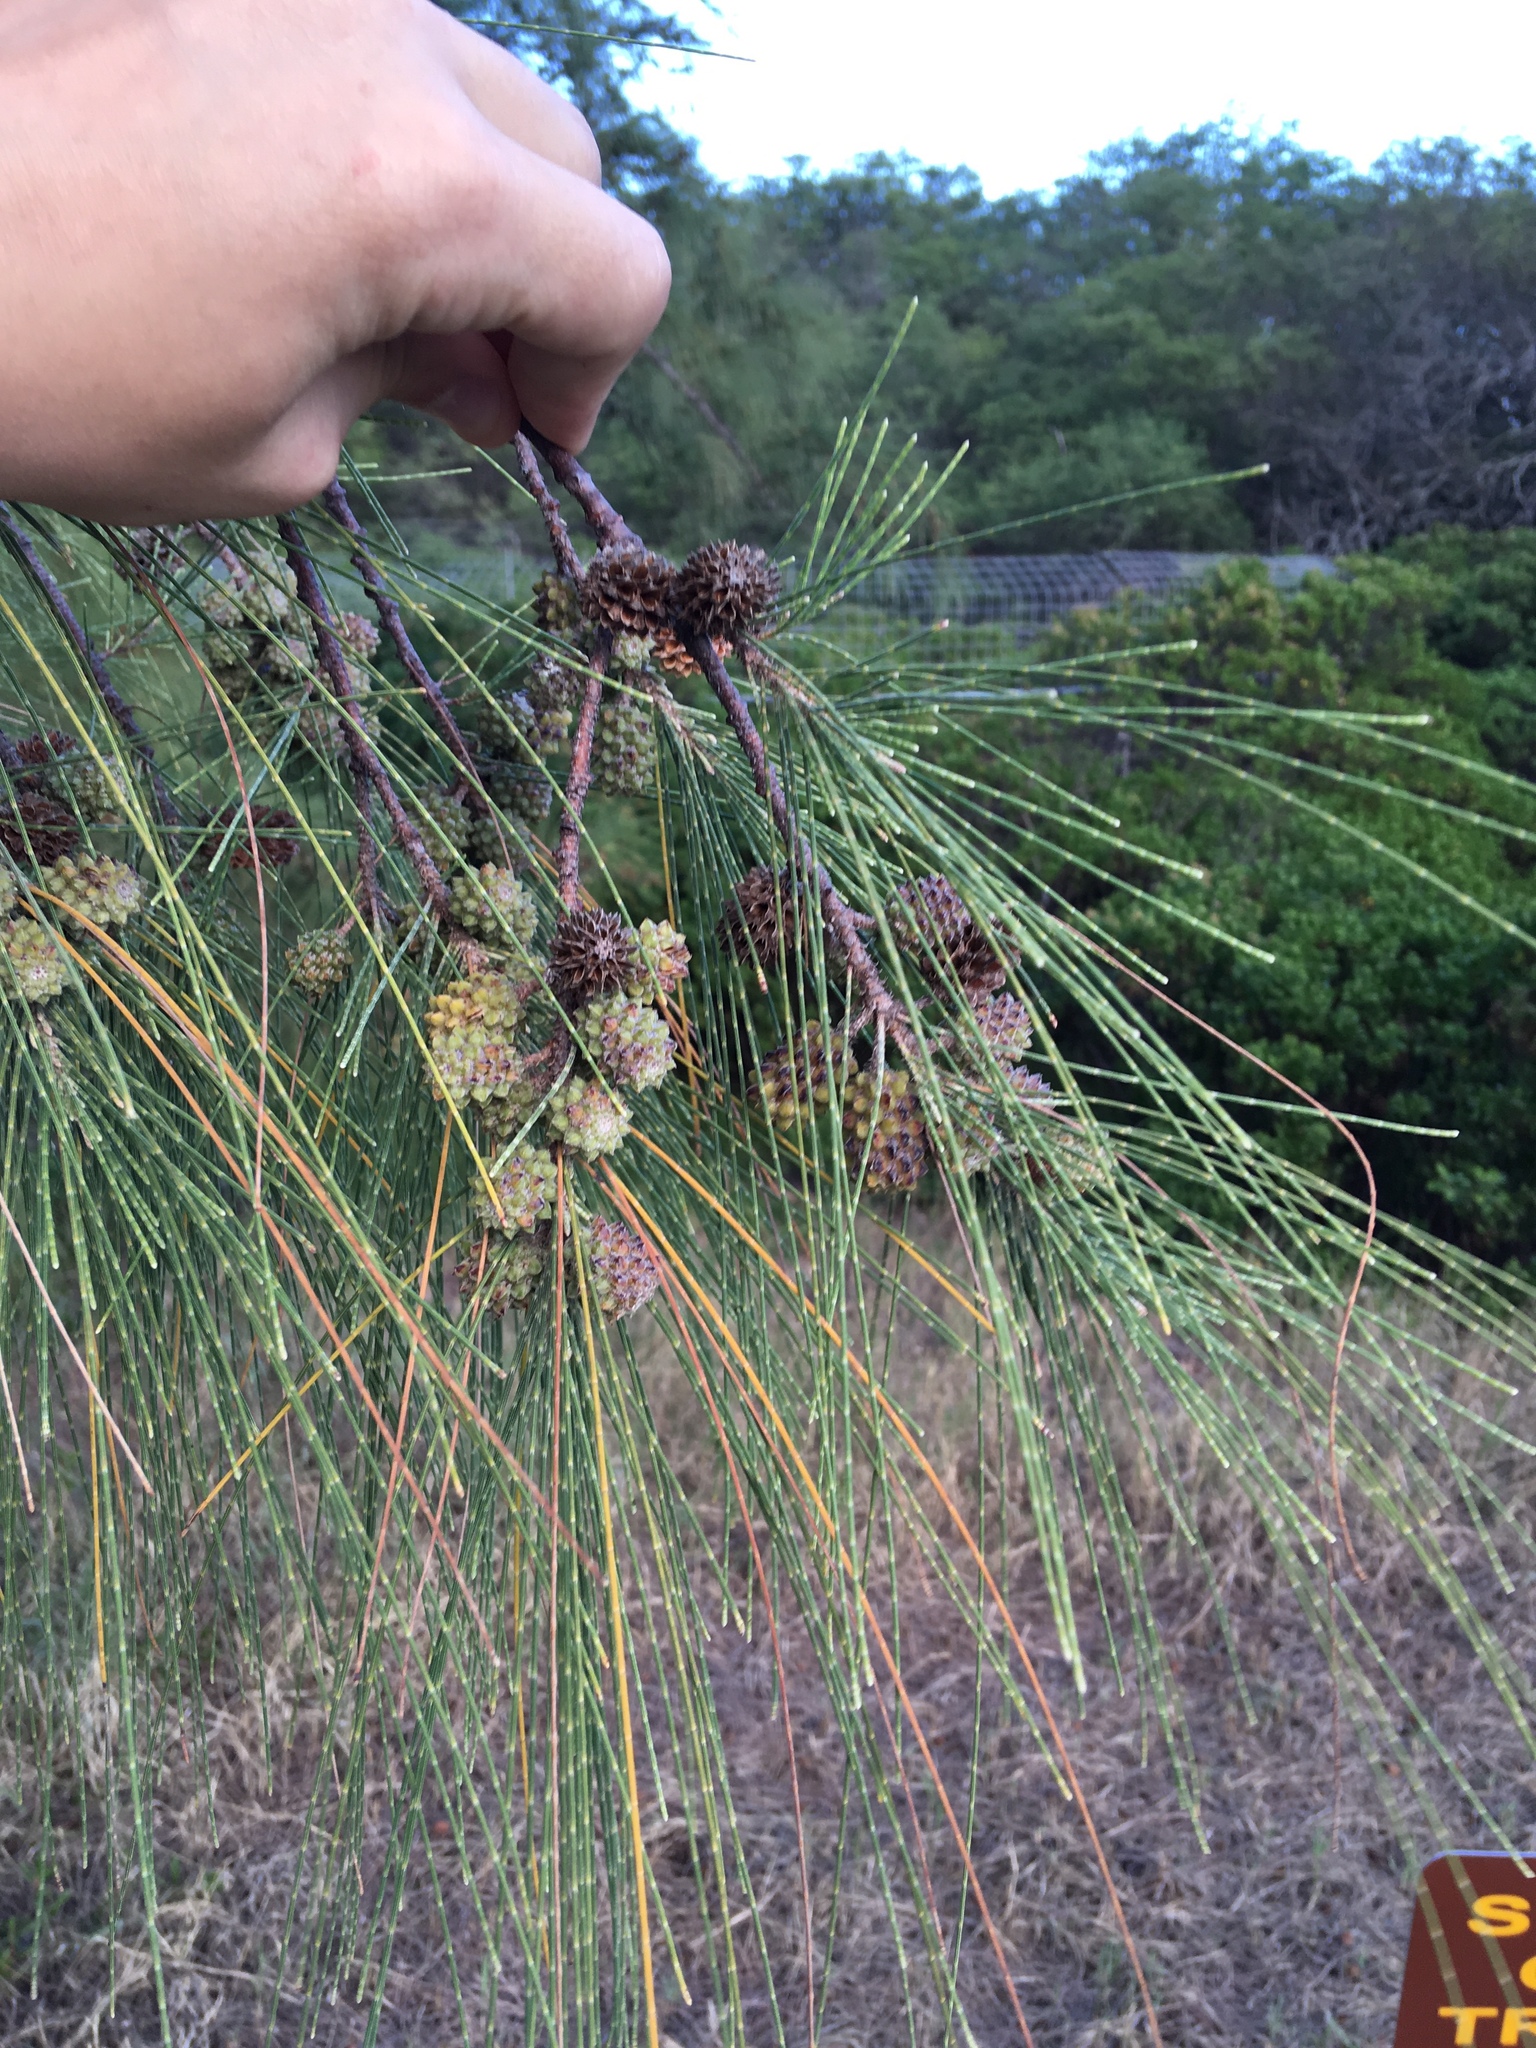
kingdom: Plantae
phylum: Tracheophyta
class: Magnoliopsida
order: Fagales
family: Casuarinaceae
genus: Casuarina
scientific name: Casuarina equisetifolia
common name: Beach sheoak
